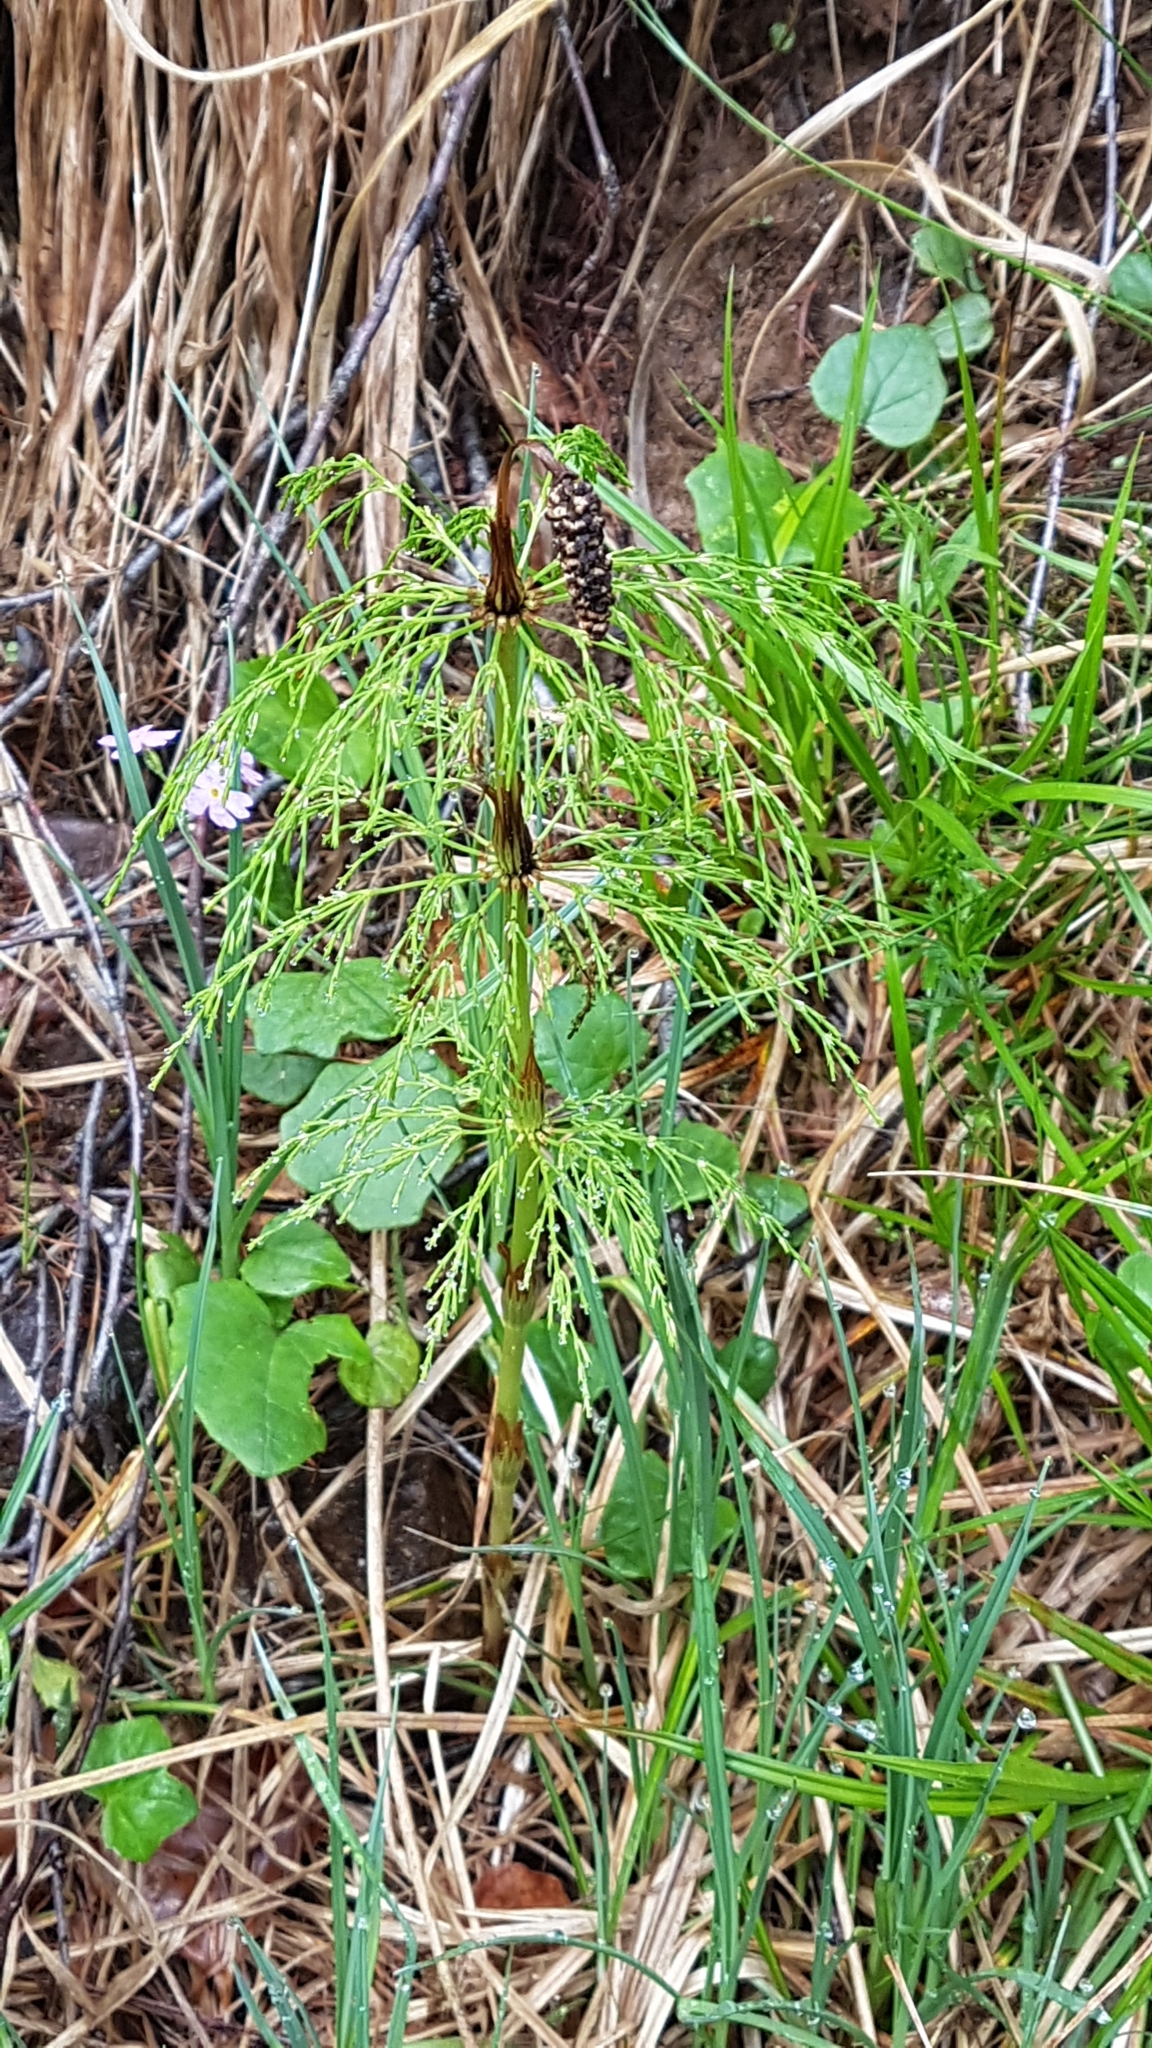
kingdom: Plantae
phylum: Tracheophyta
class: Polypodiopsida
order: Equisetales
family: Equisetaceae
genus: Equisetum
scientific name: Equisetum sylvaticum
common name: Wood horsetail
